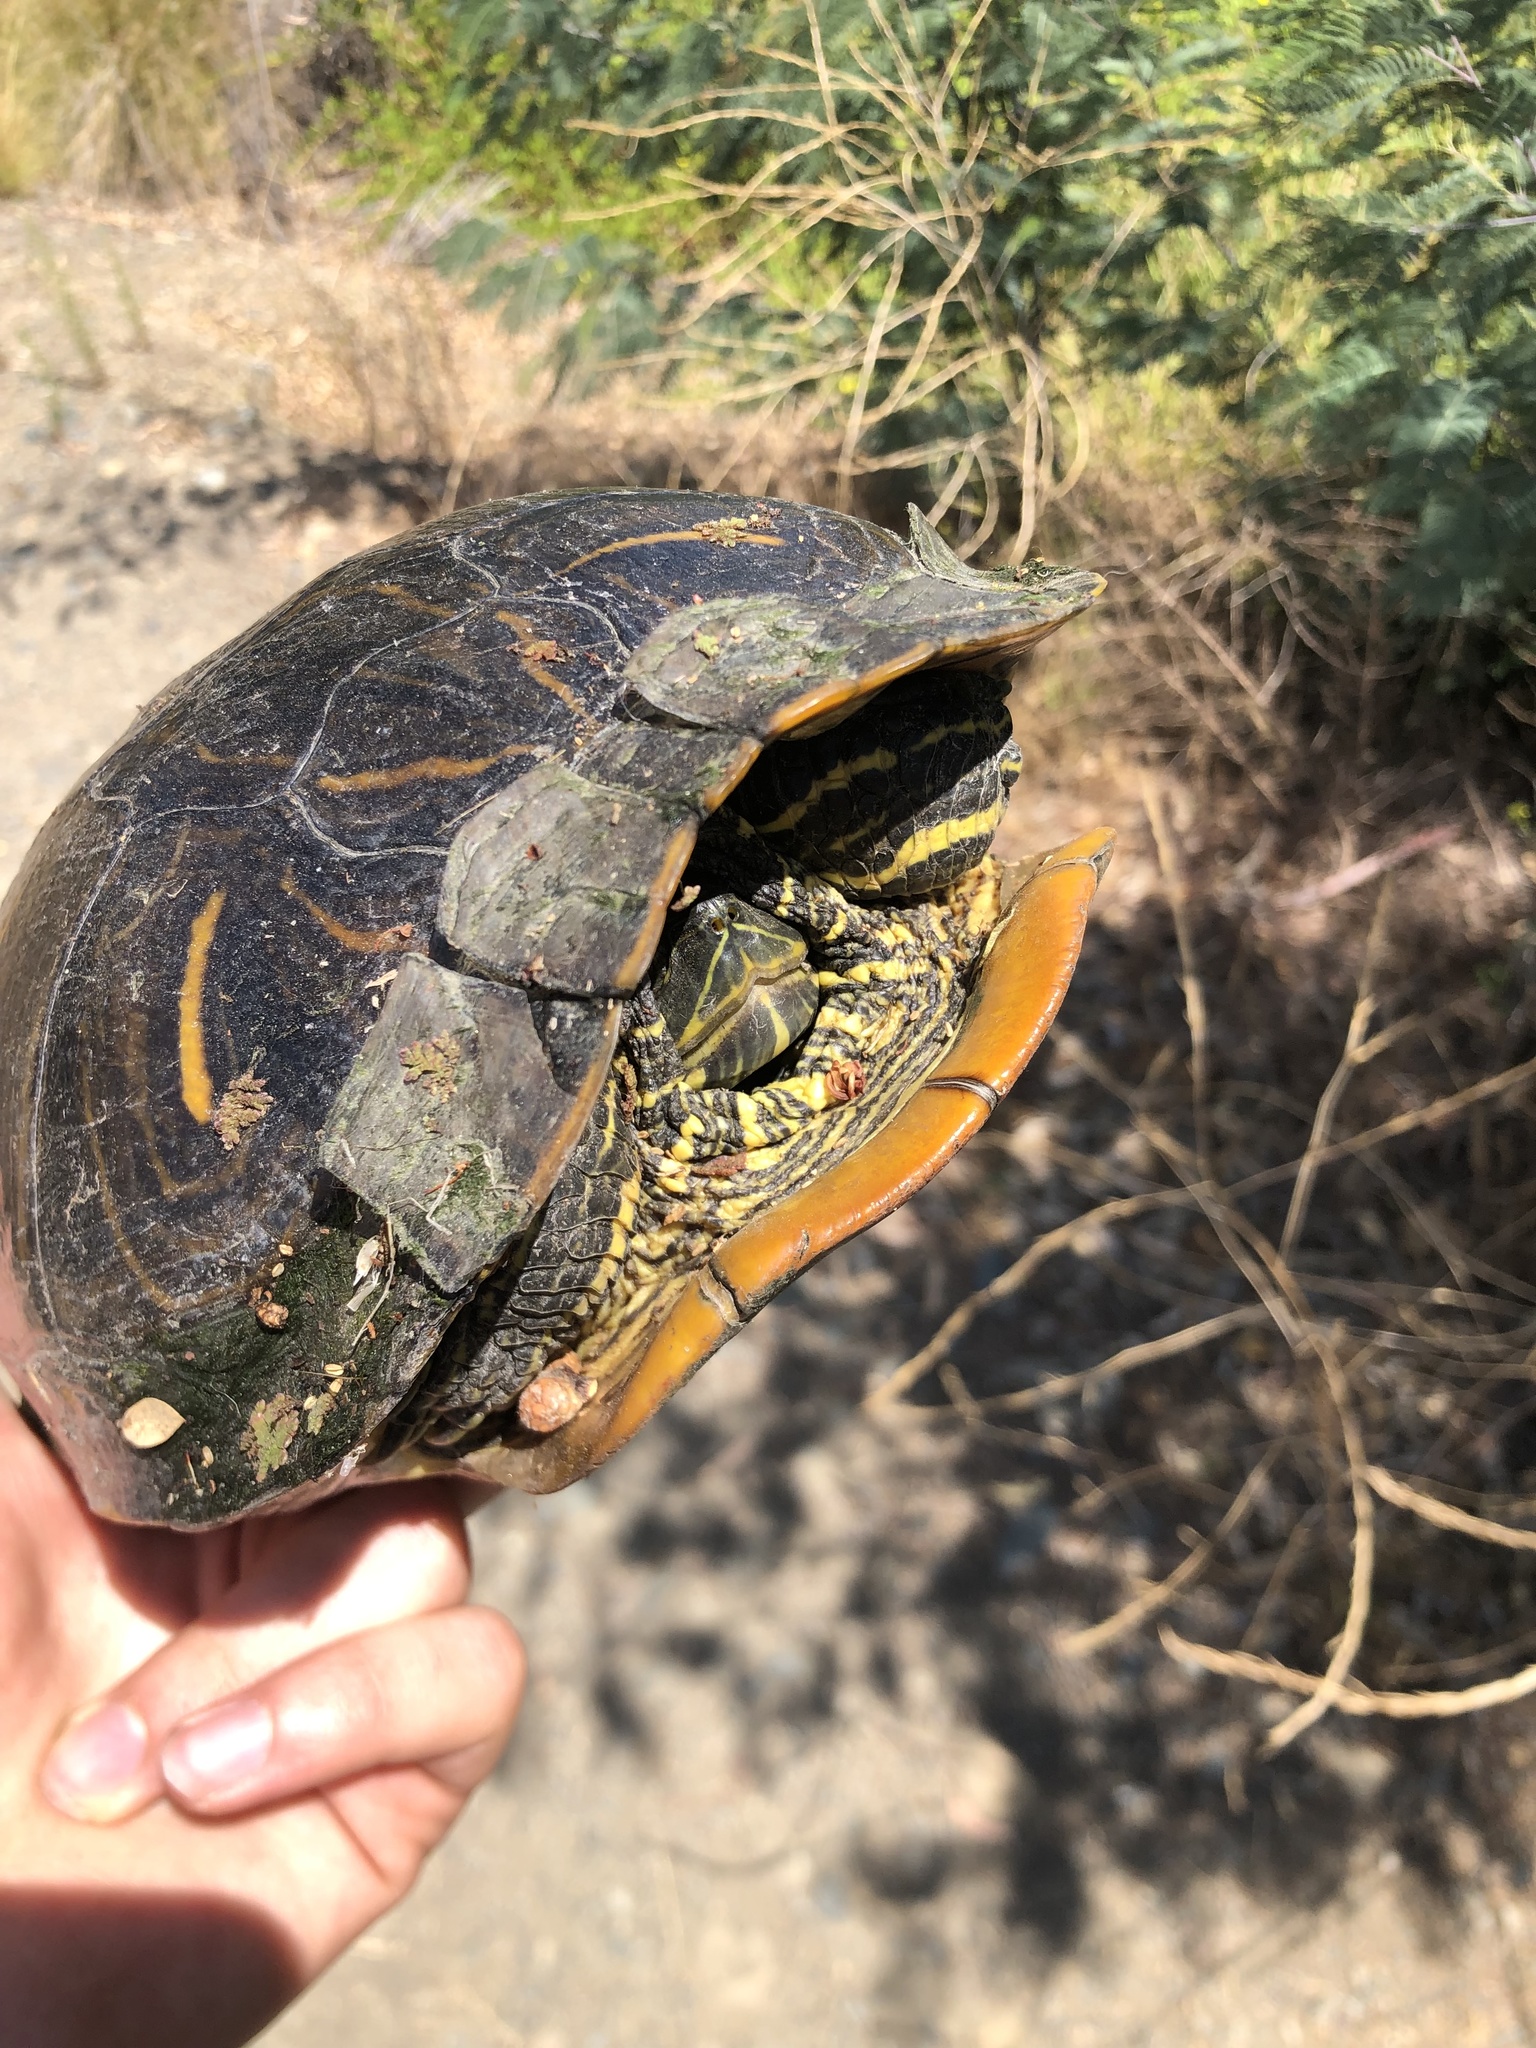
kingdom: Animalia
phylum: Chordata
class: Testudines
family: Emydidae
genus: Trachemys
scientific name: Trachemys scripta
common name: Slider
